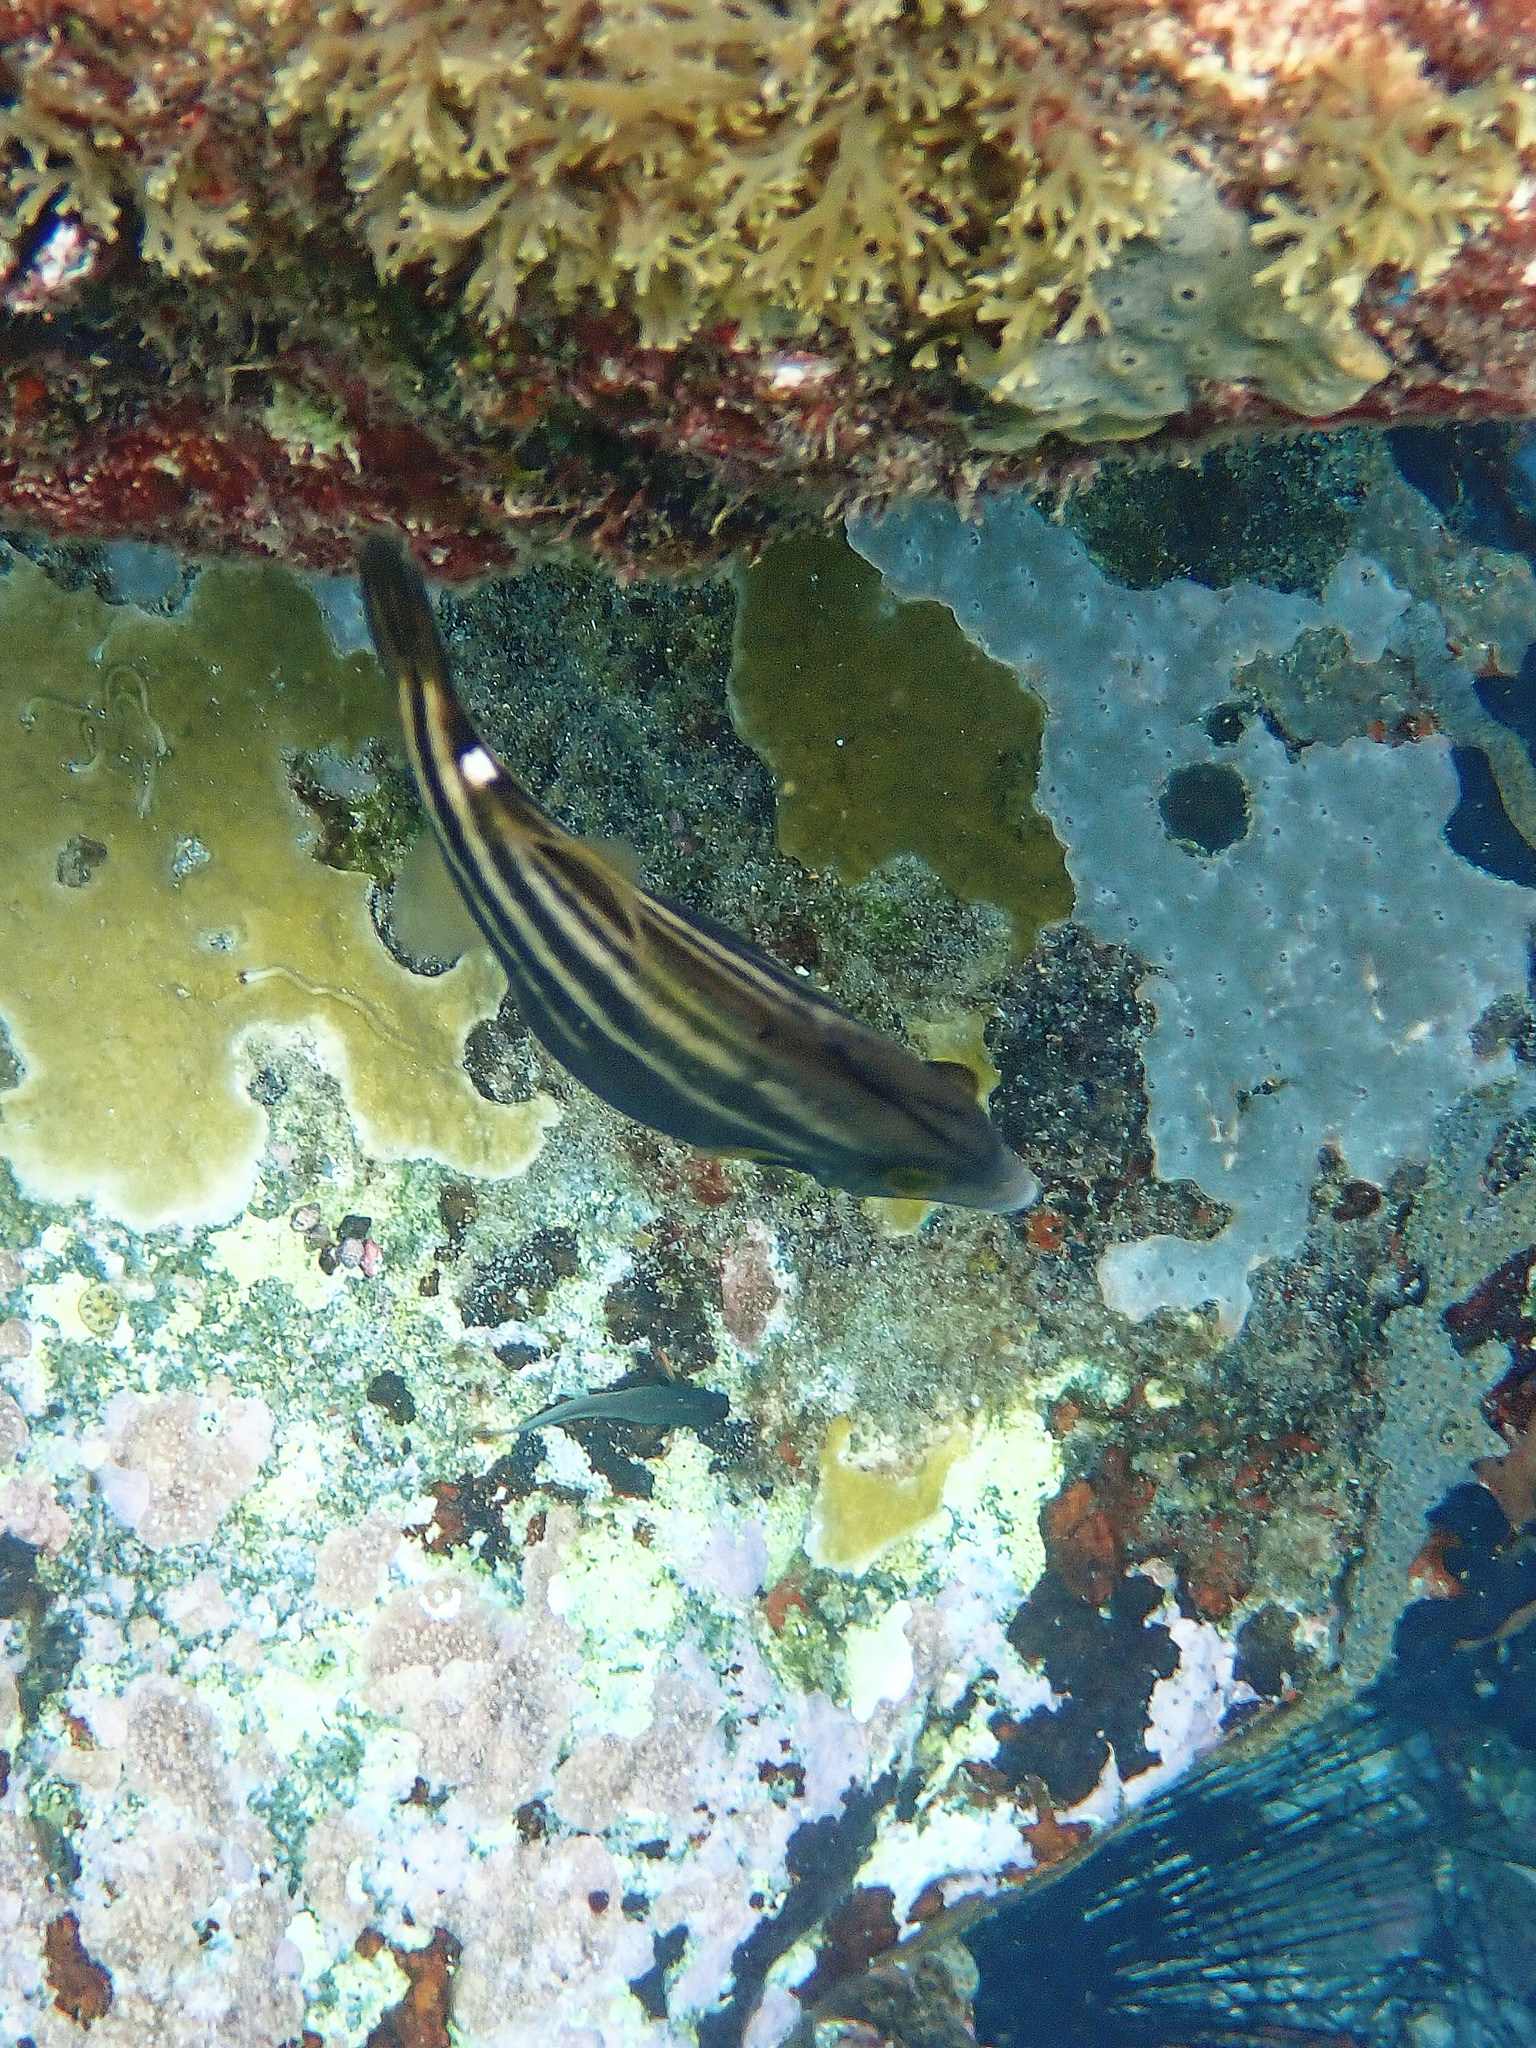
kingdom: Animalia
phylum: Chordata
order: Tetraodontiformes
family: Monacanthidae
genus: Cantherhines
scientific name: Cantherhines pullus
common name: Orangespotted filefish
